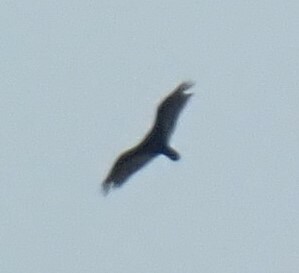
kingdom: Animalia
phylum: Chordata
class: Aves
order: Accipitriformes
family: Cathartidae
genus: Cathartes
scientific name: Cathartes aura
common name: Turkey vulture
